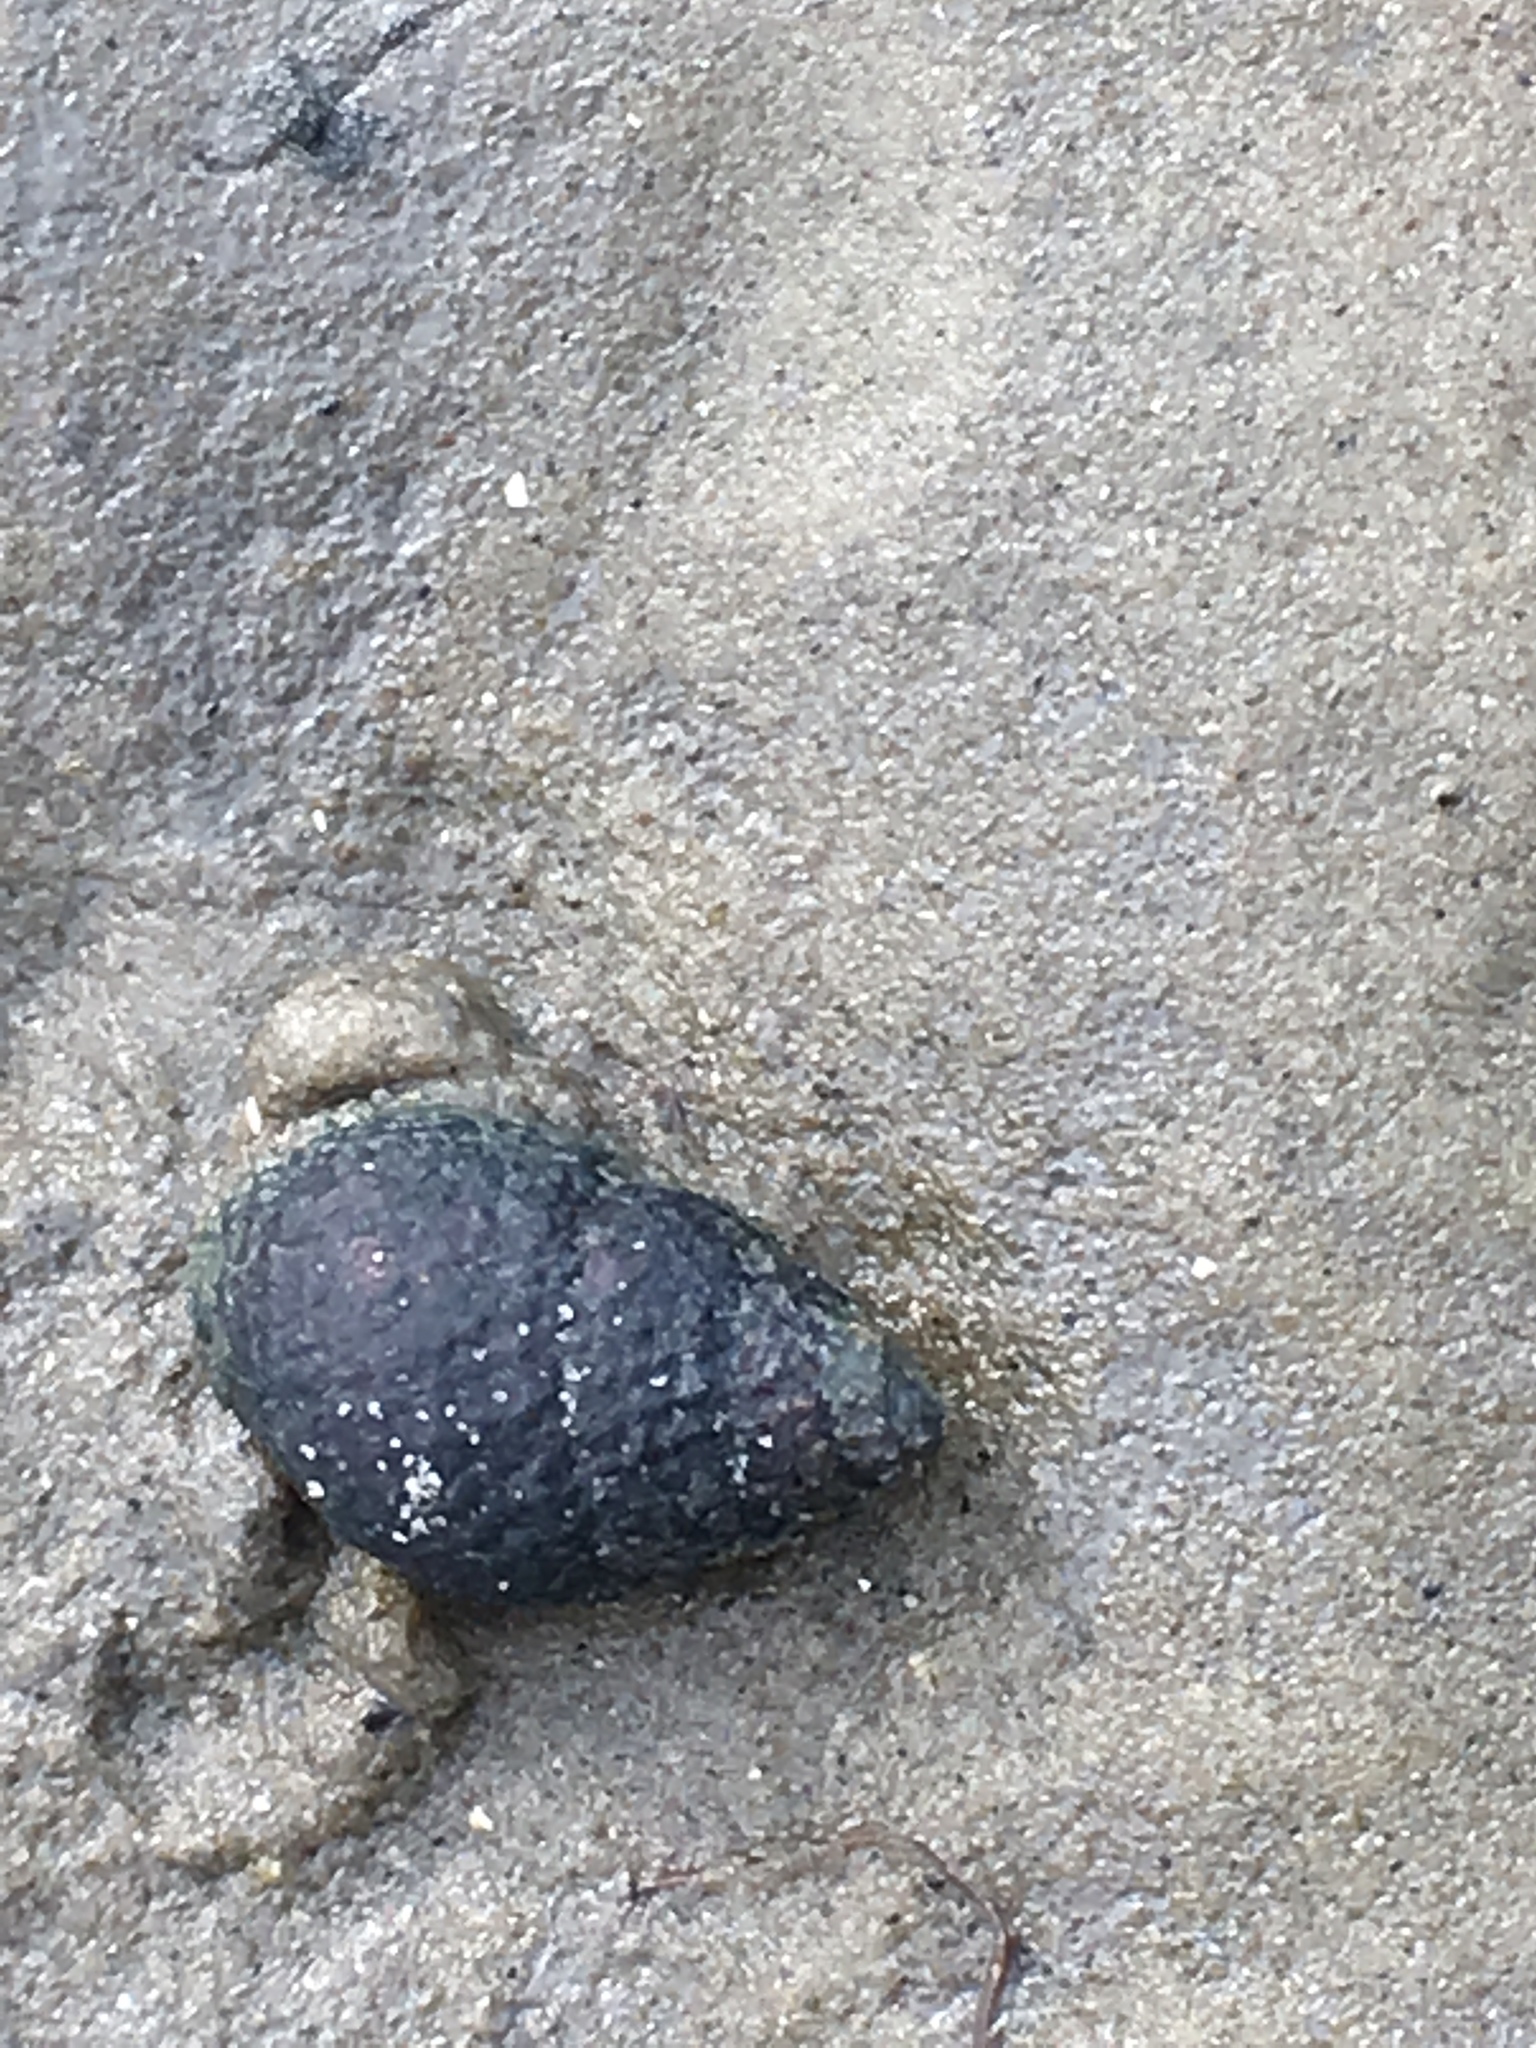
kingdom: Animalia
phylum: Mollusca
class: Gastropoda
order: Neogastropoda
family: Nassariidae
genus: Ilyanassa
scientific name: Ilyanassa obsoleta
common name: Eastern mudsnail
